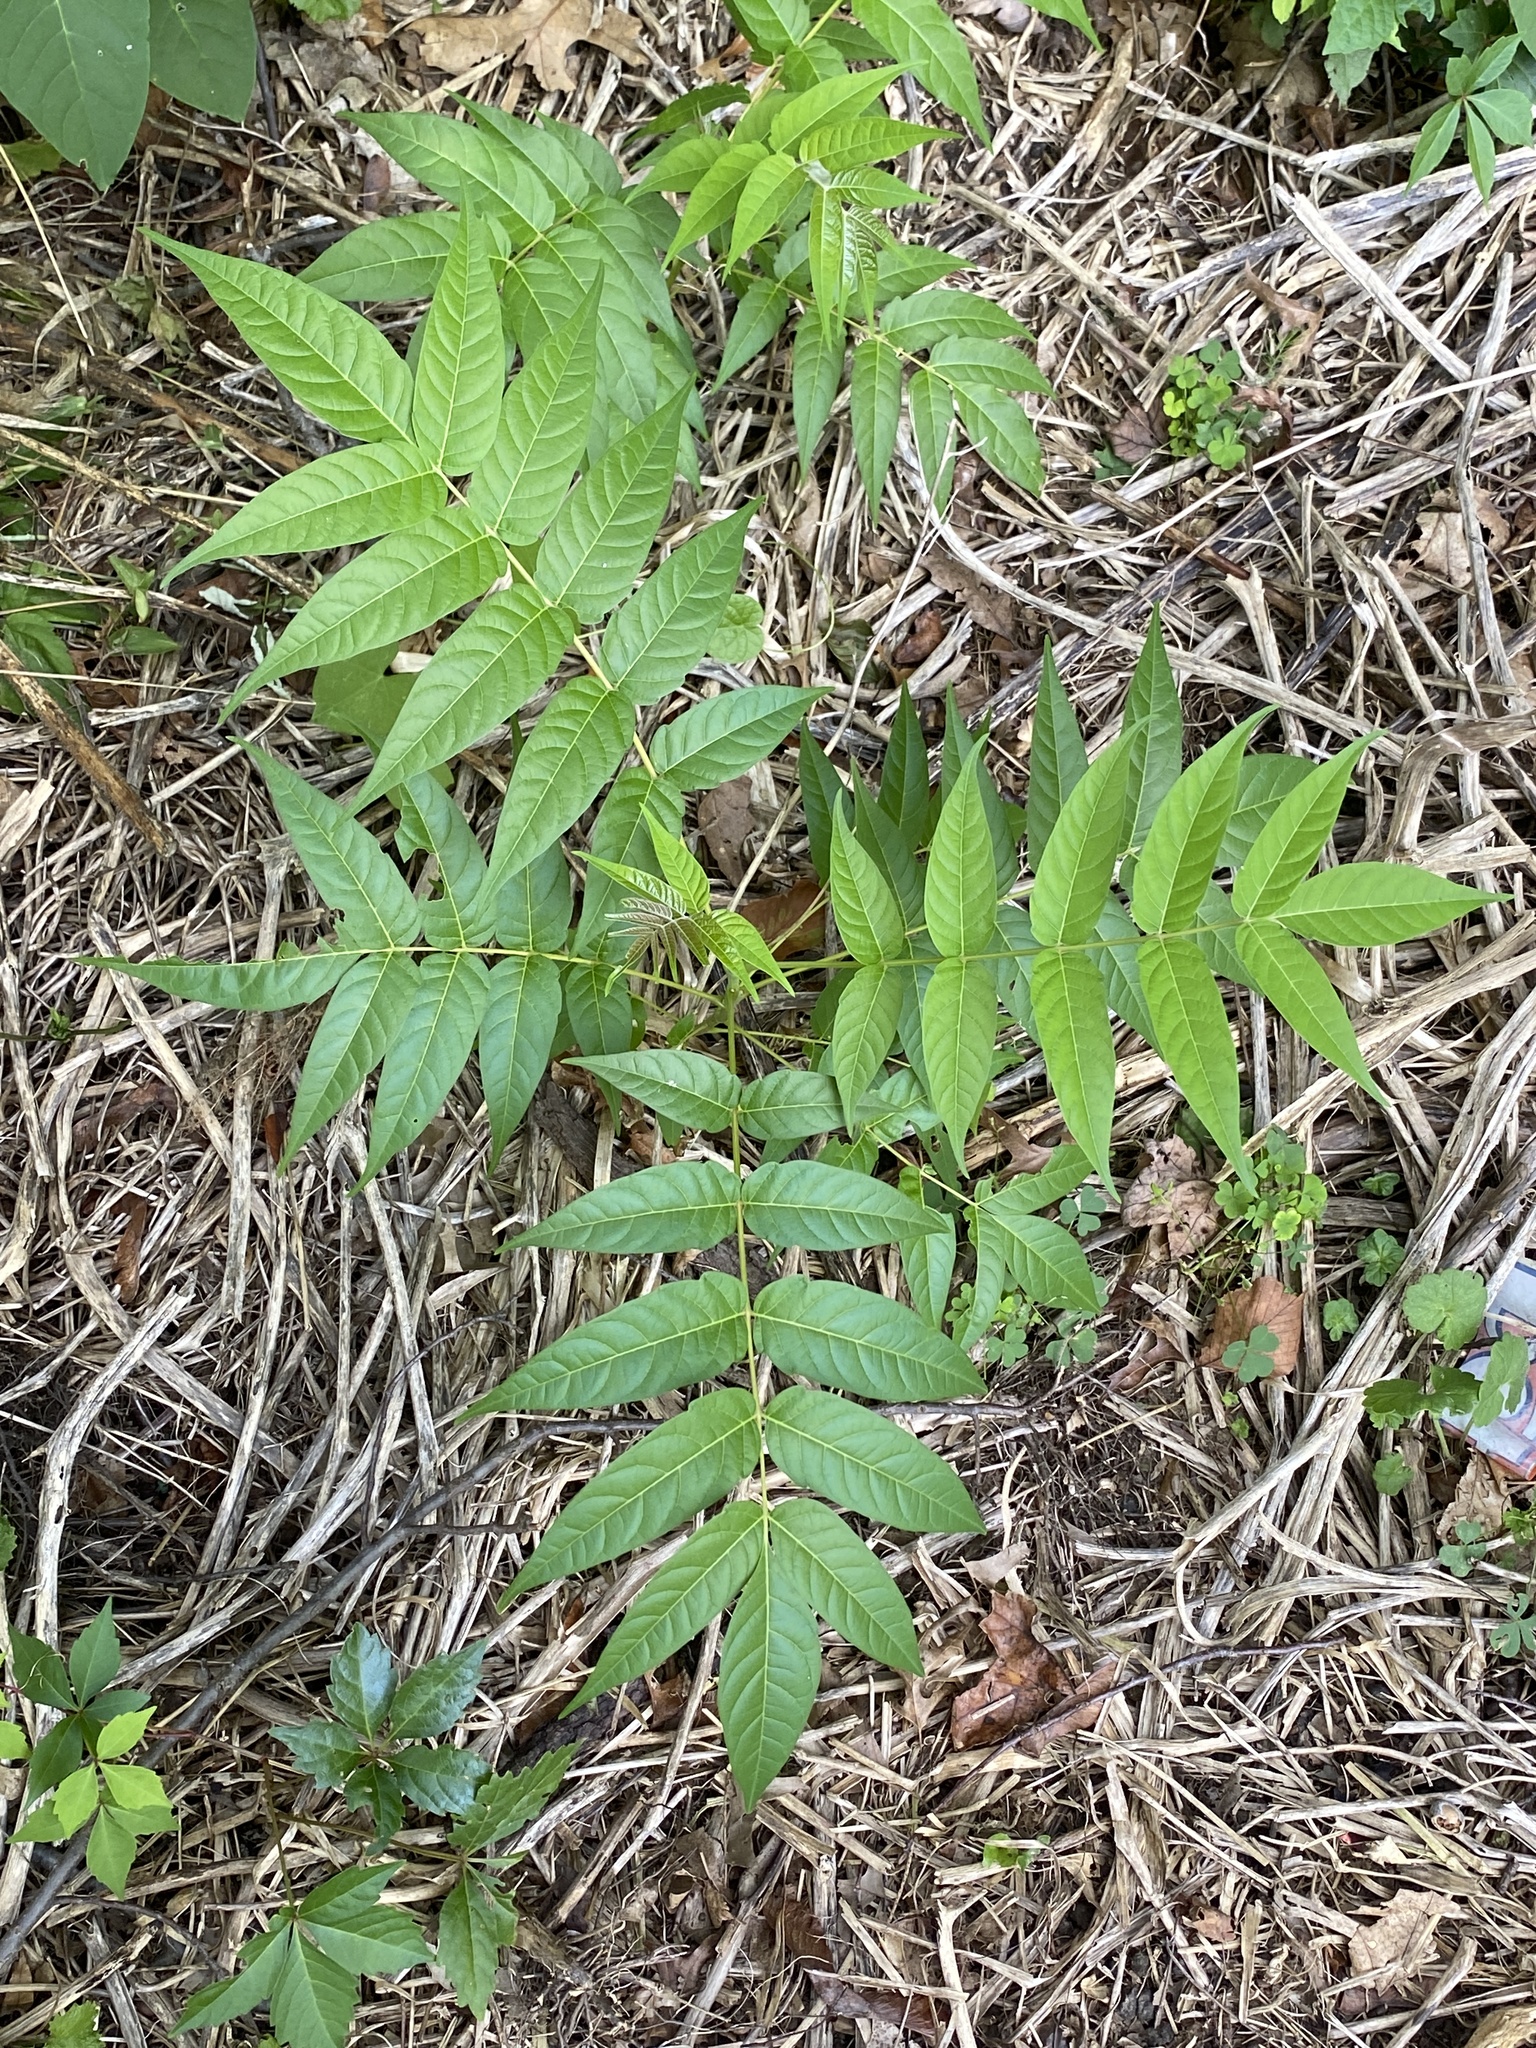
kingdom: Plantae
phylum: Tracheophyta
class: Magnoliopsida
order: Sapindales
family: Simaroubaceae
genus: Ailanthus
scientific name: Ailanthus altissima
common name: Tree-of-heaven
